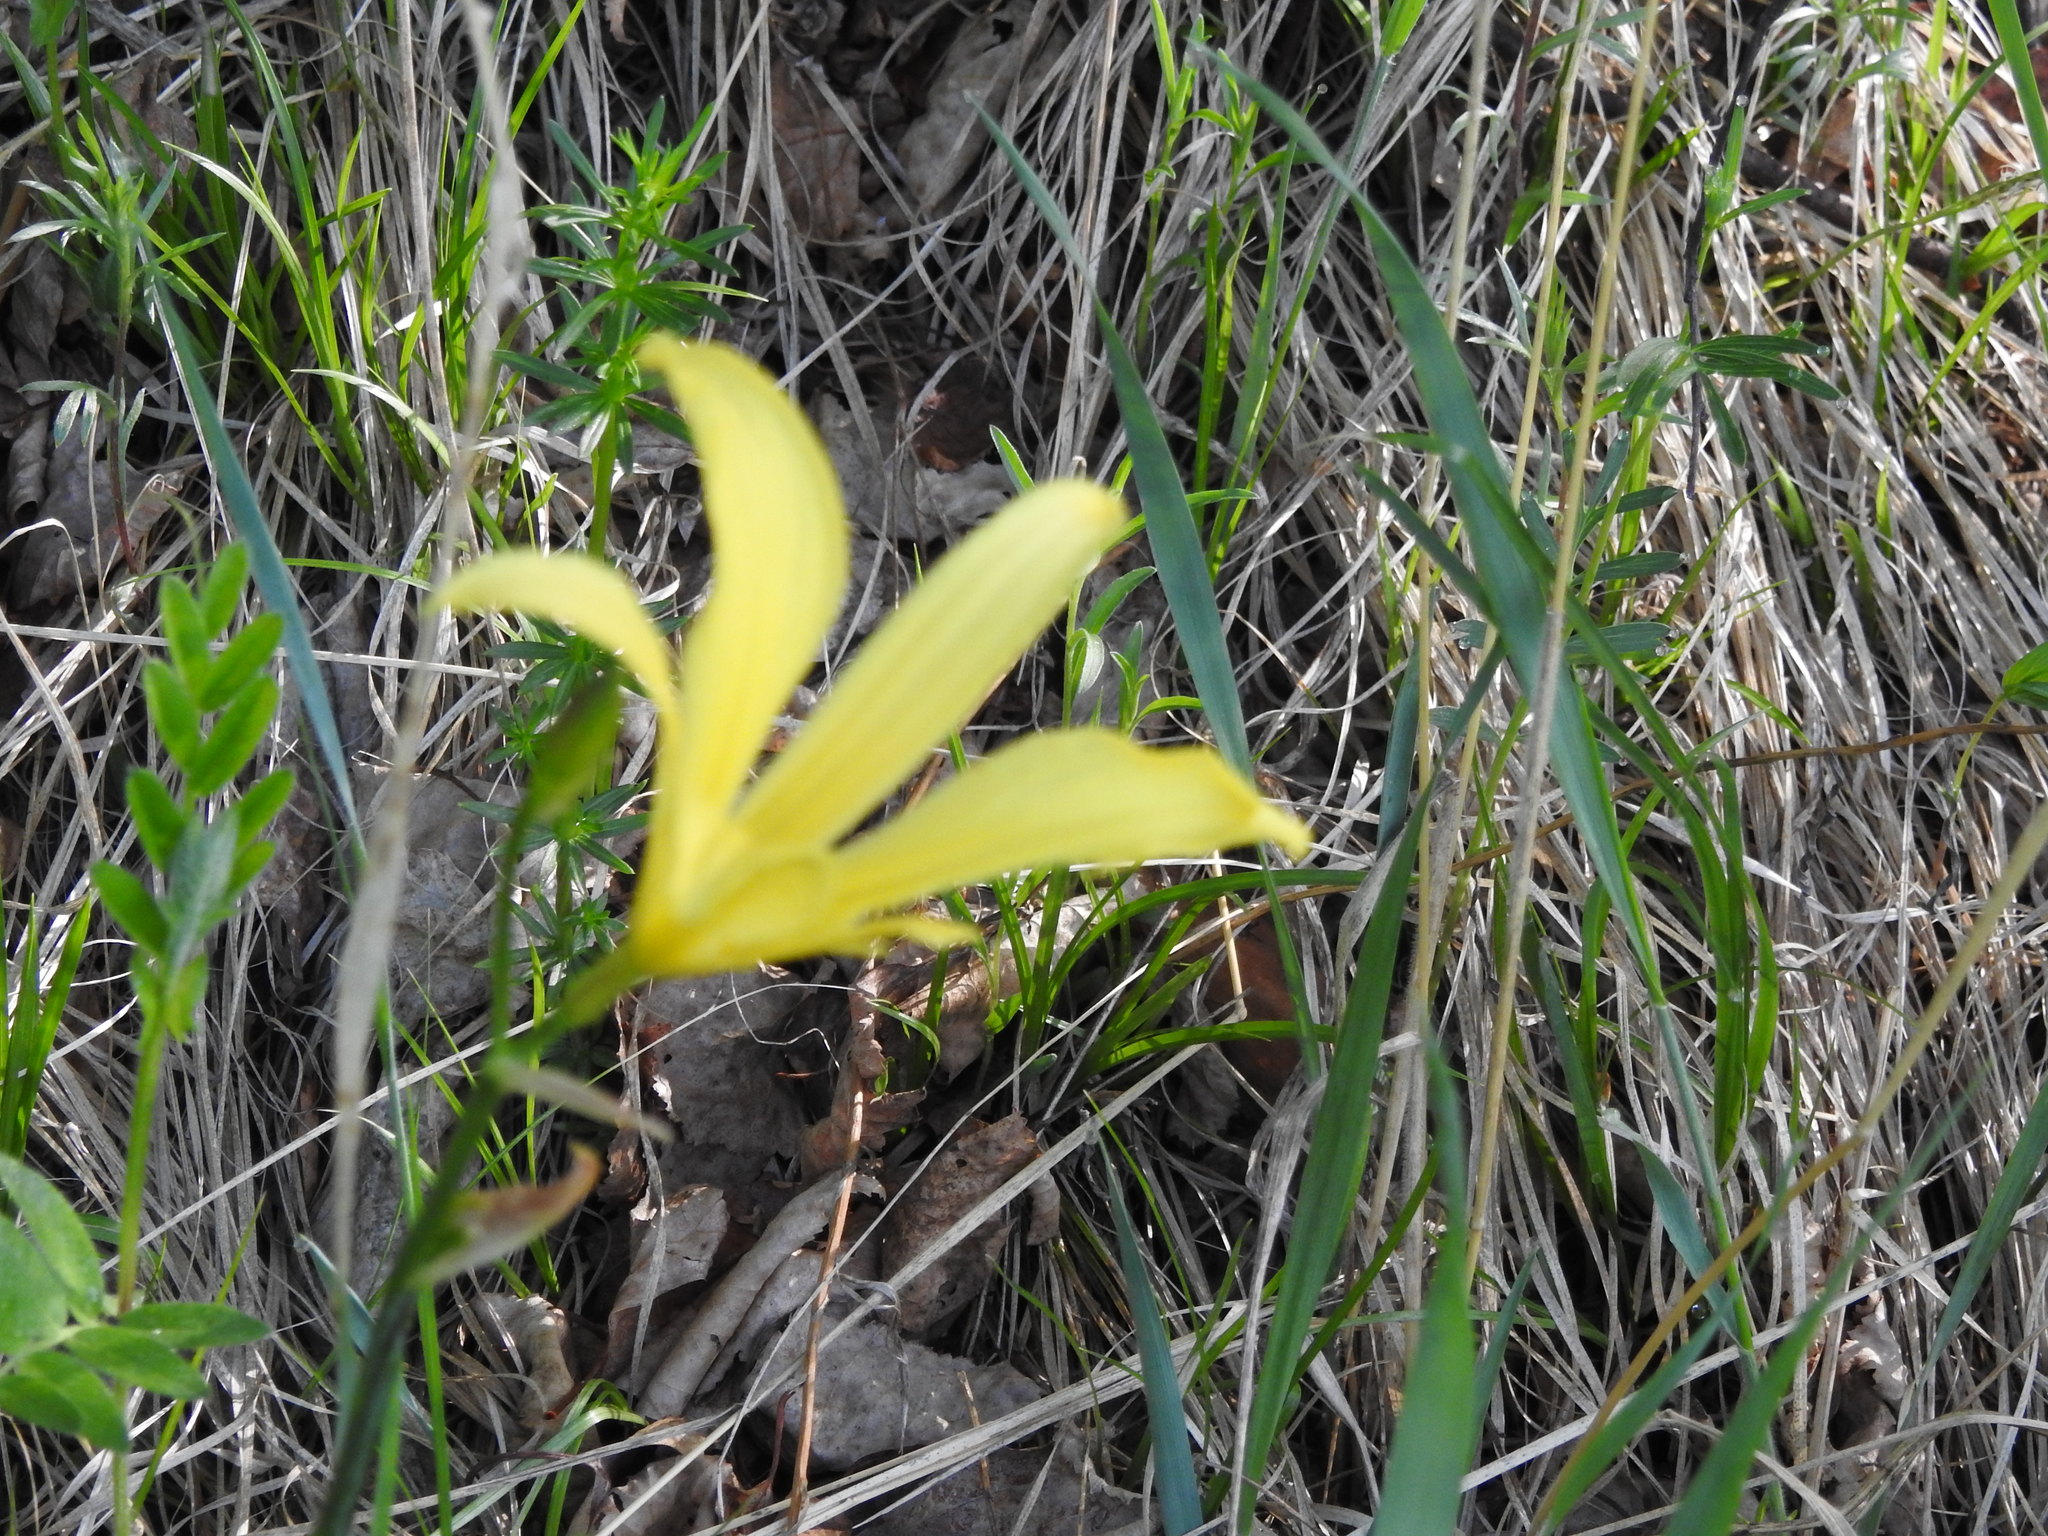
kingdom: Plantae
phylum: Tracheophyta
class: Liliopsida
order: Asparagales
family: Asphodelaceae
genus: Hemerocallis
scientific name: Hemerocallis minor
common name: Small daylily
